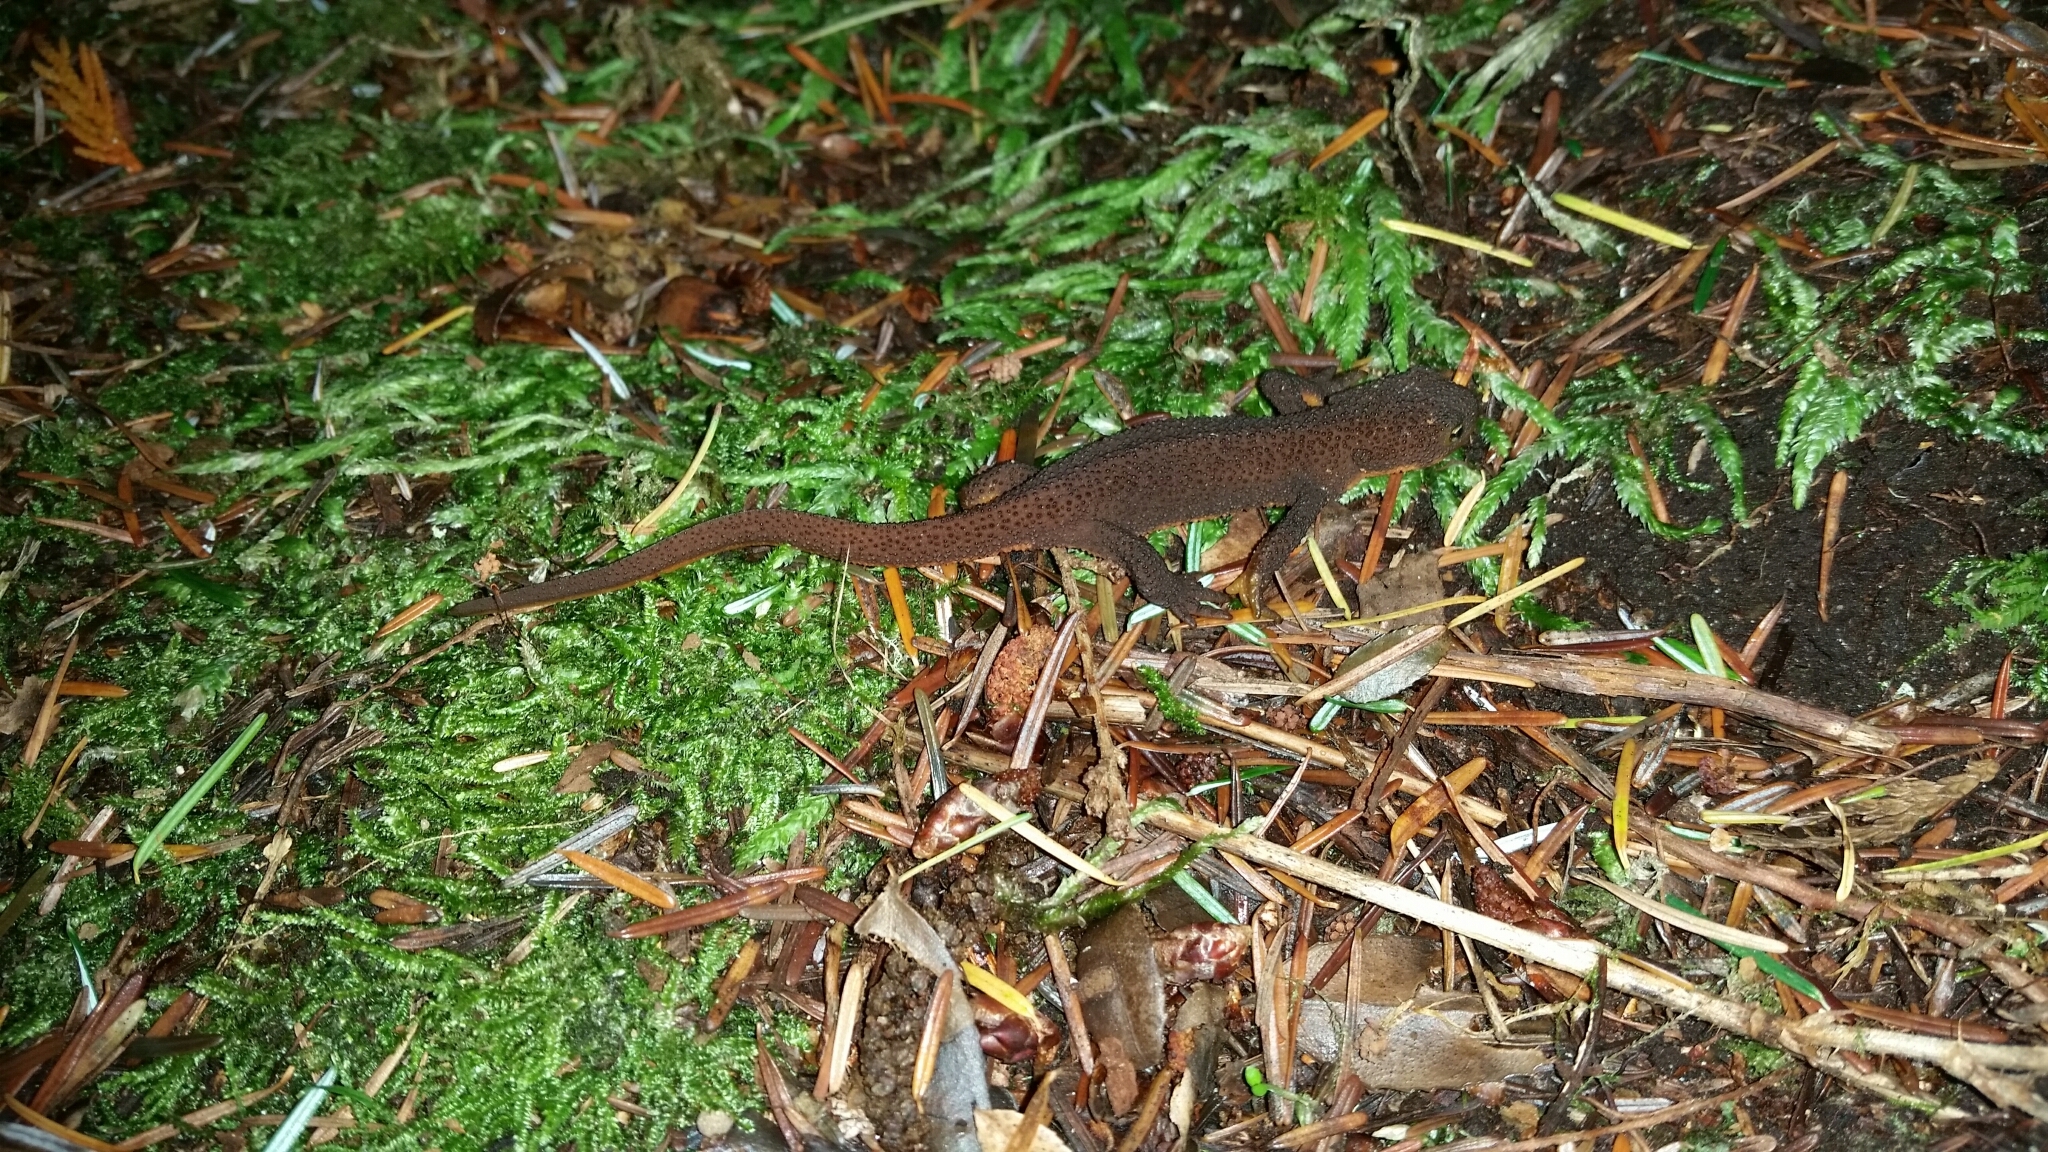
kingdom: Animalia
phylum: Chordata
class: Amphibia
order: Caudata
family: Salamandridae
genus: Taricha
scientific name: Taricha granulosa
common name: Roughskin newt
